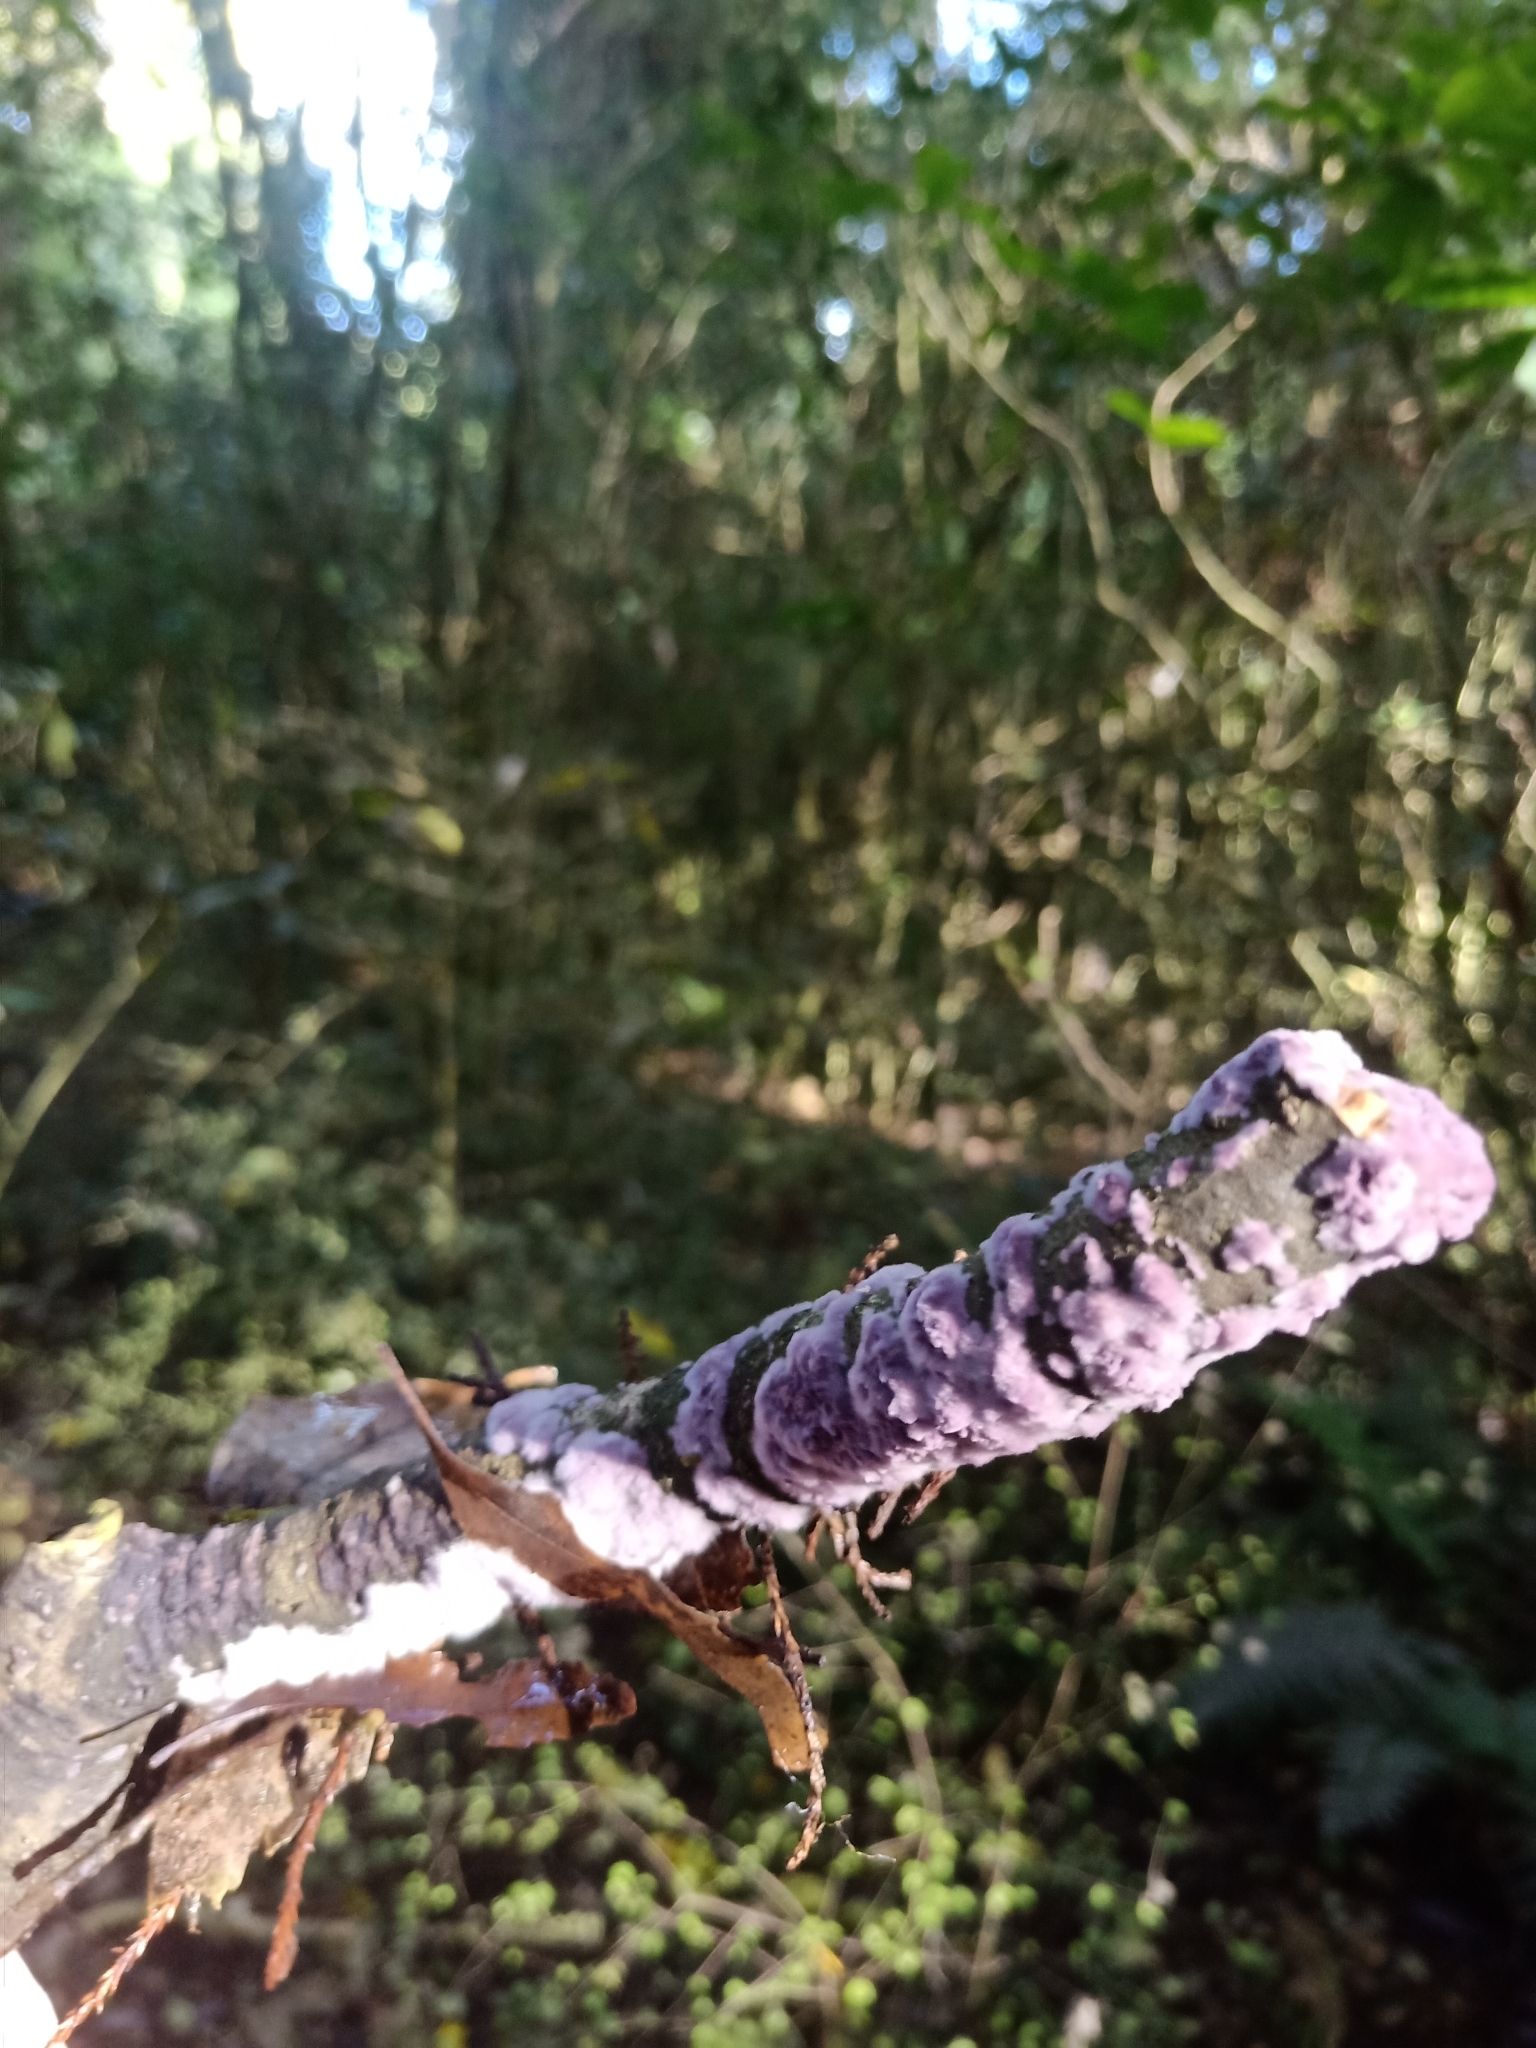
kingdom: Fungi
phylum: Basidiomycota
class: Agaricomycetes
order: Agaricales
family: Cyphellaceae
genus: Chondrostereum
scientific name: Chondrostereum purpureum
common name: Silver leaf disease
